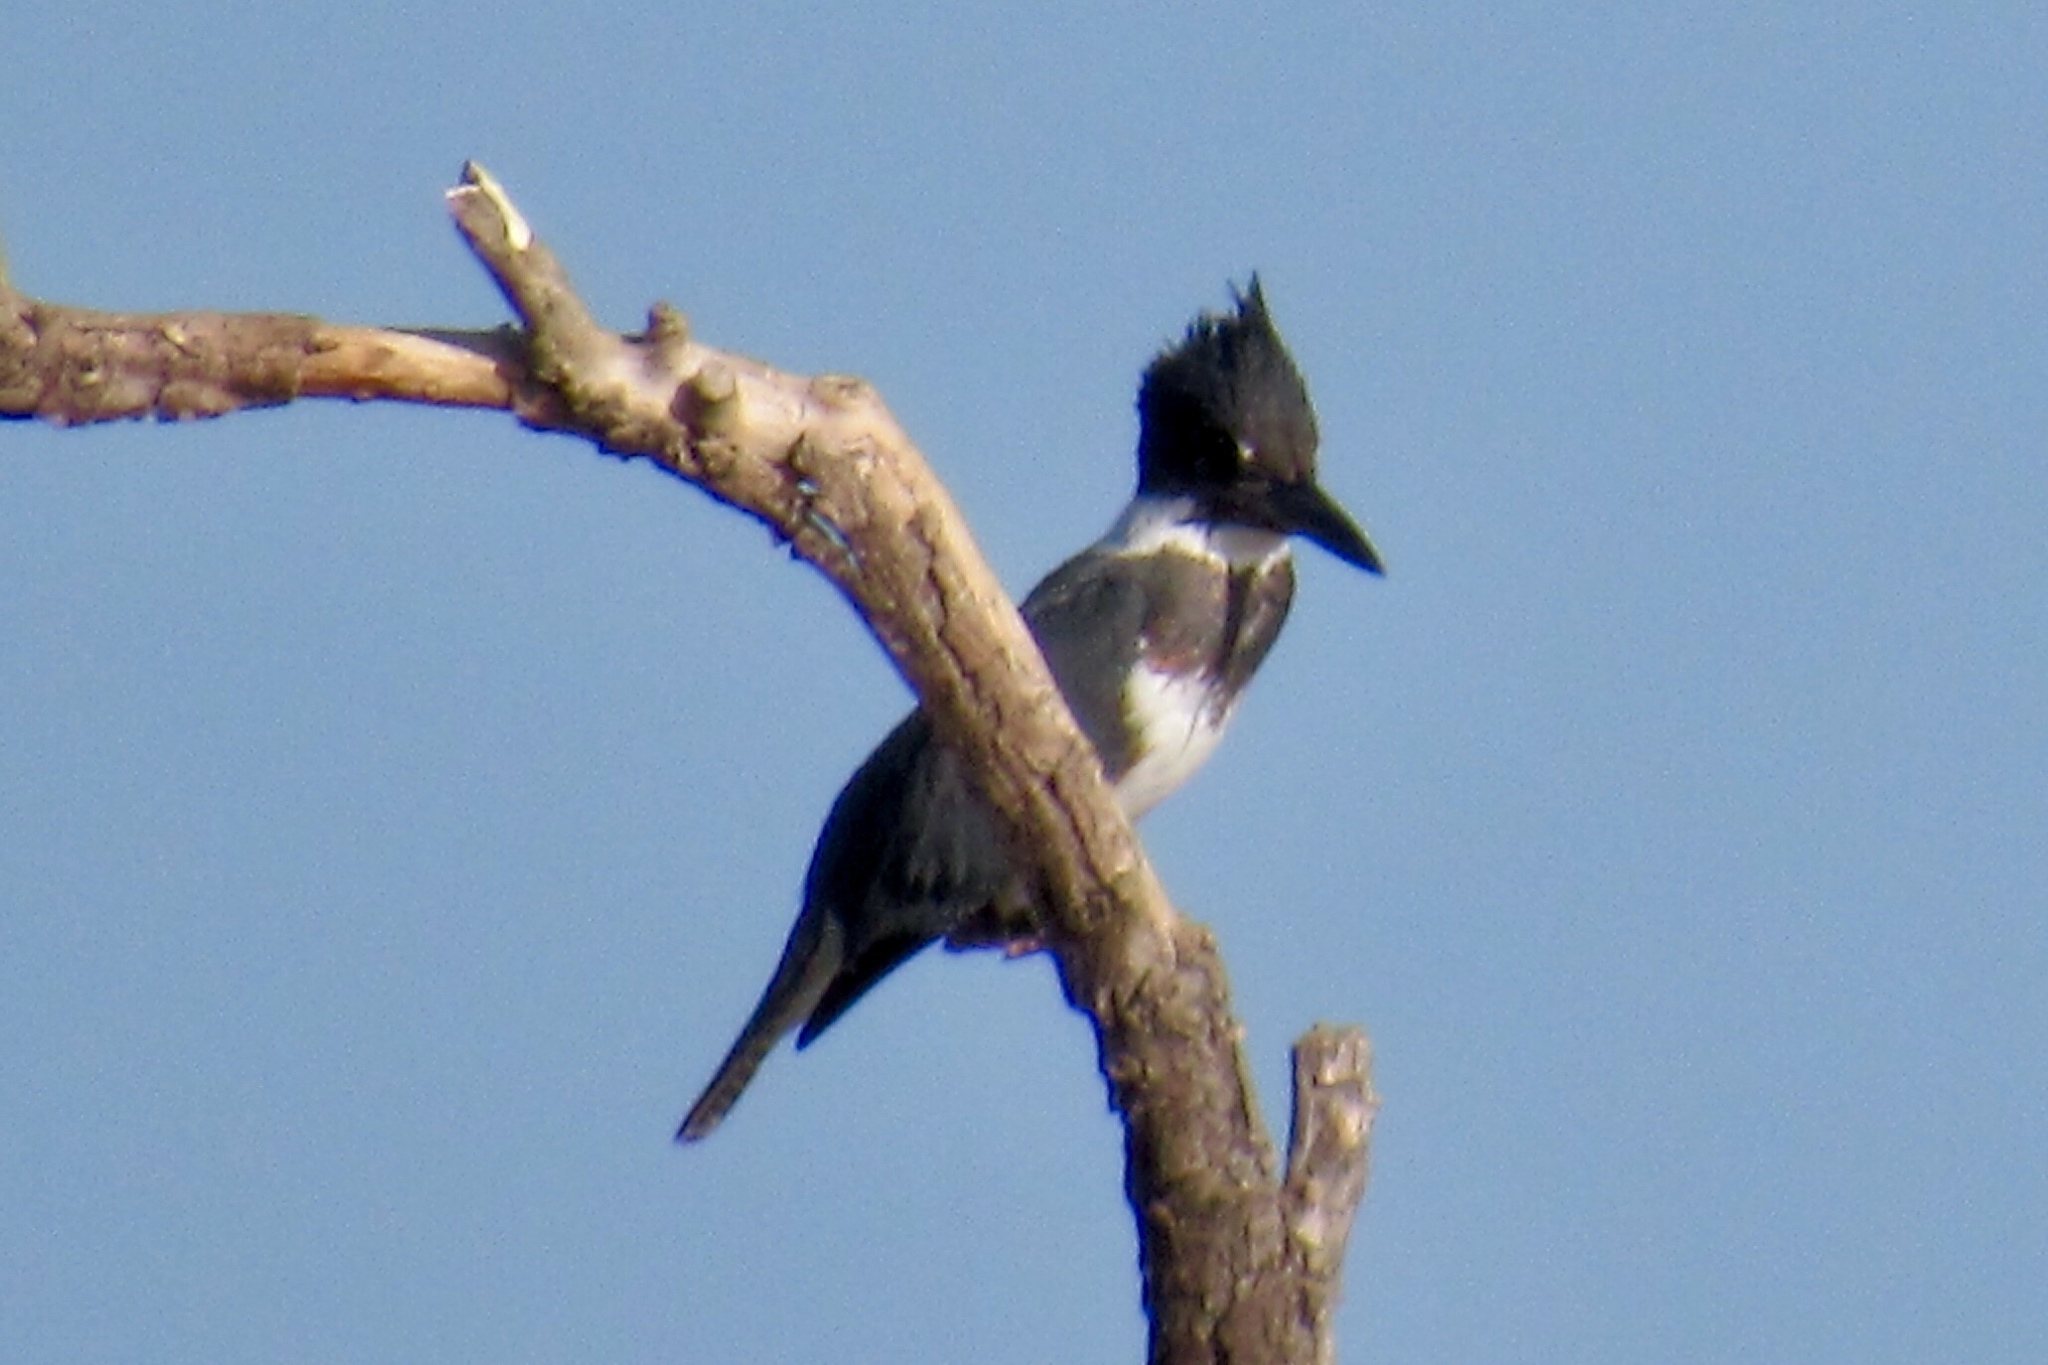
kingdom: Animalia
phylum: Chordata
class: Aves
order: Coraciiformes
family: Alcedinidae
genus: Megaceryle
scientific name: Megaceryle alcyon
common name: Belted kingfisher
